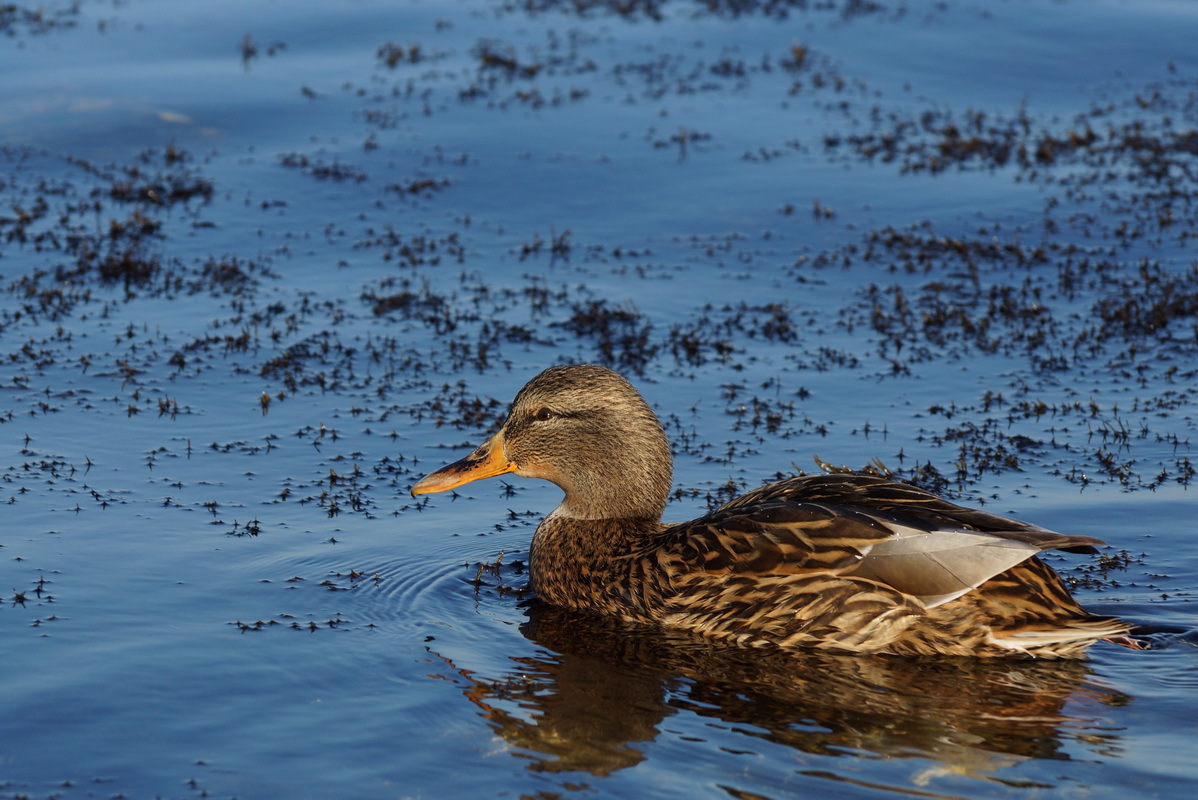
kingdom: Animalia
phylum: Chordata
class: Aves
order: Anseriformes
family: Anatidae
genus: Anas
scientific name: Anas platyrhynchos
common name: Mallard
